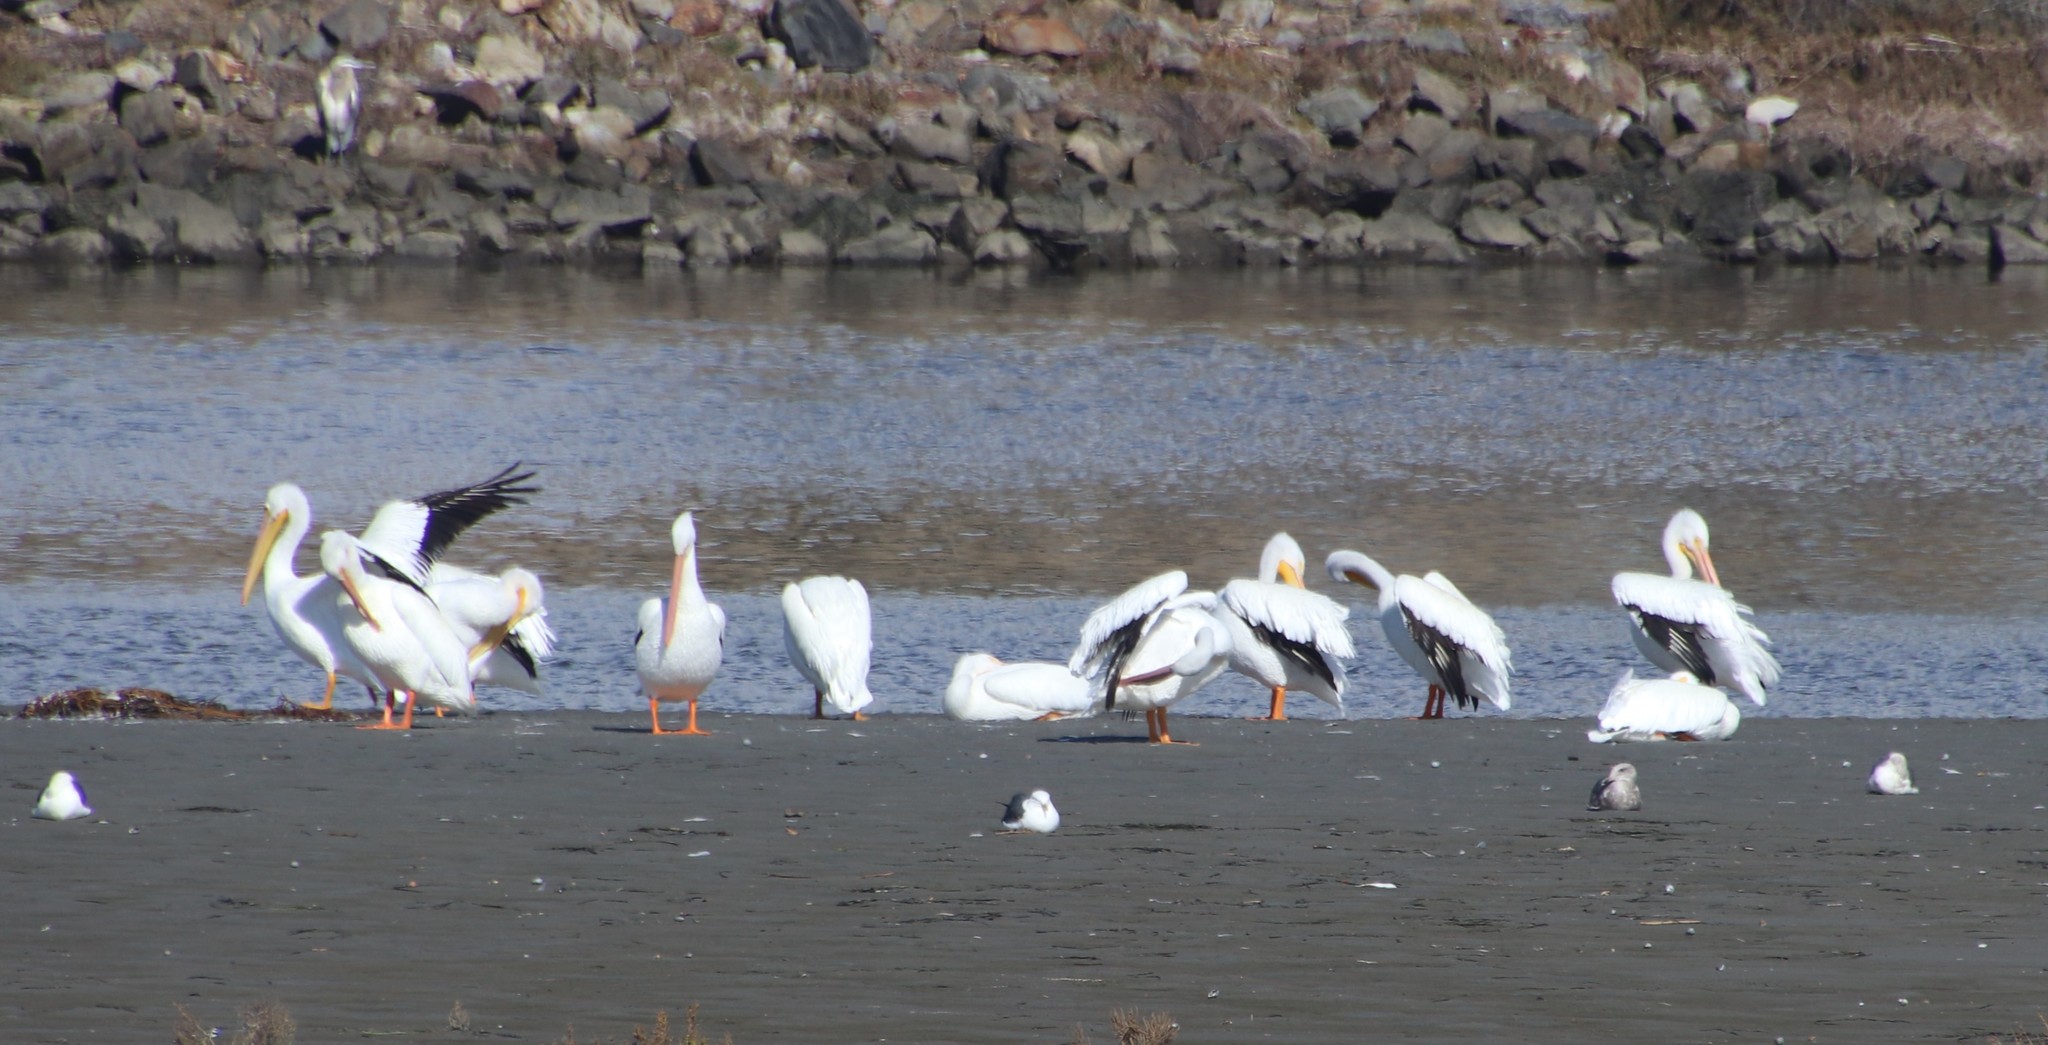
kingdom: Animalia
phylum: Chordata
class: Aves
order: Pelecaniformes
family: Pelecanidae
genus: Pelecanus
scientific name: Pelecanus erythrorhynchos
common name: American white pelican
